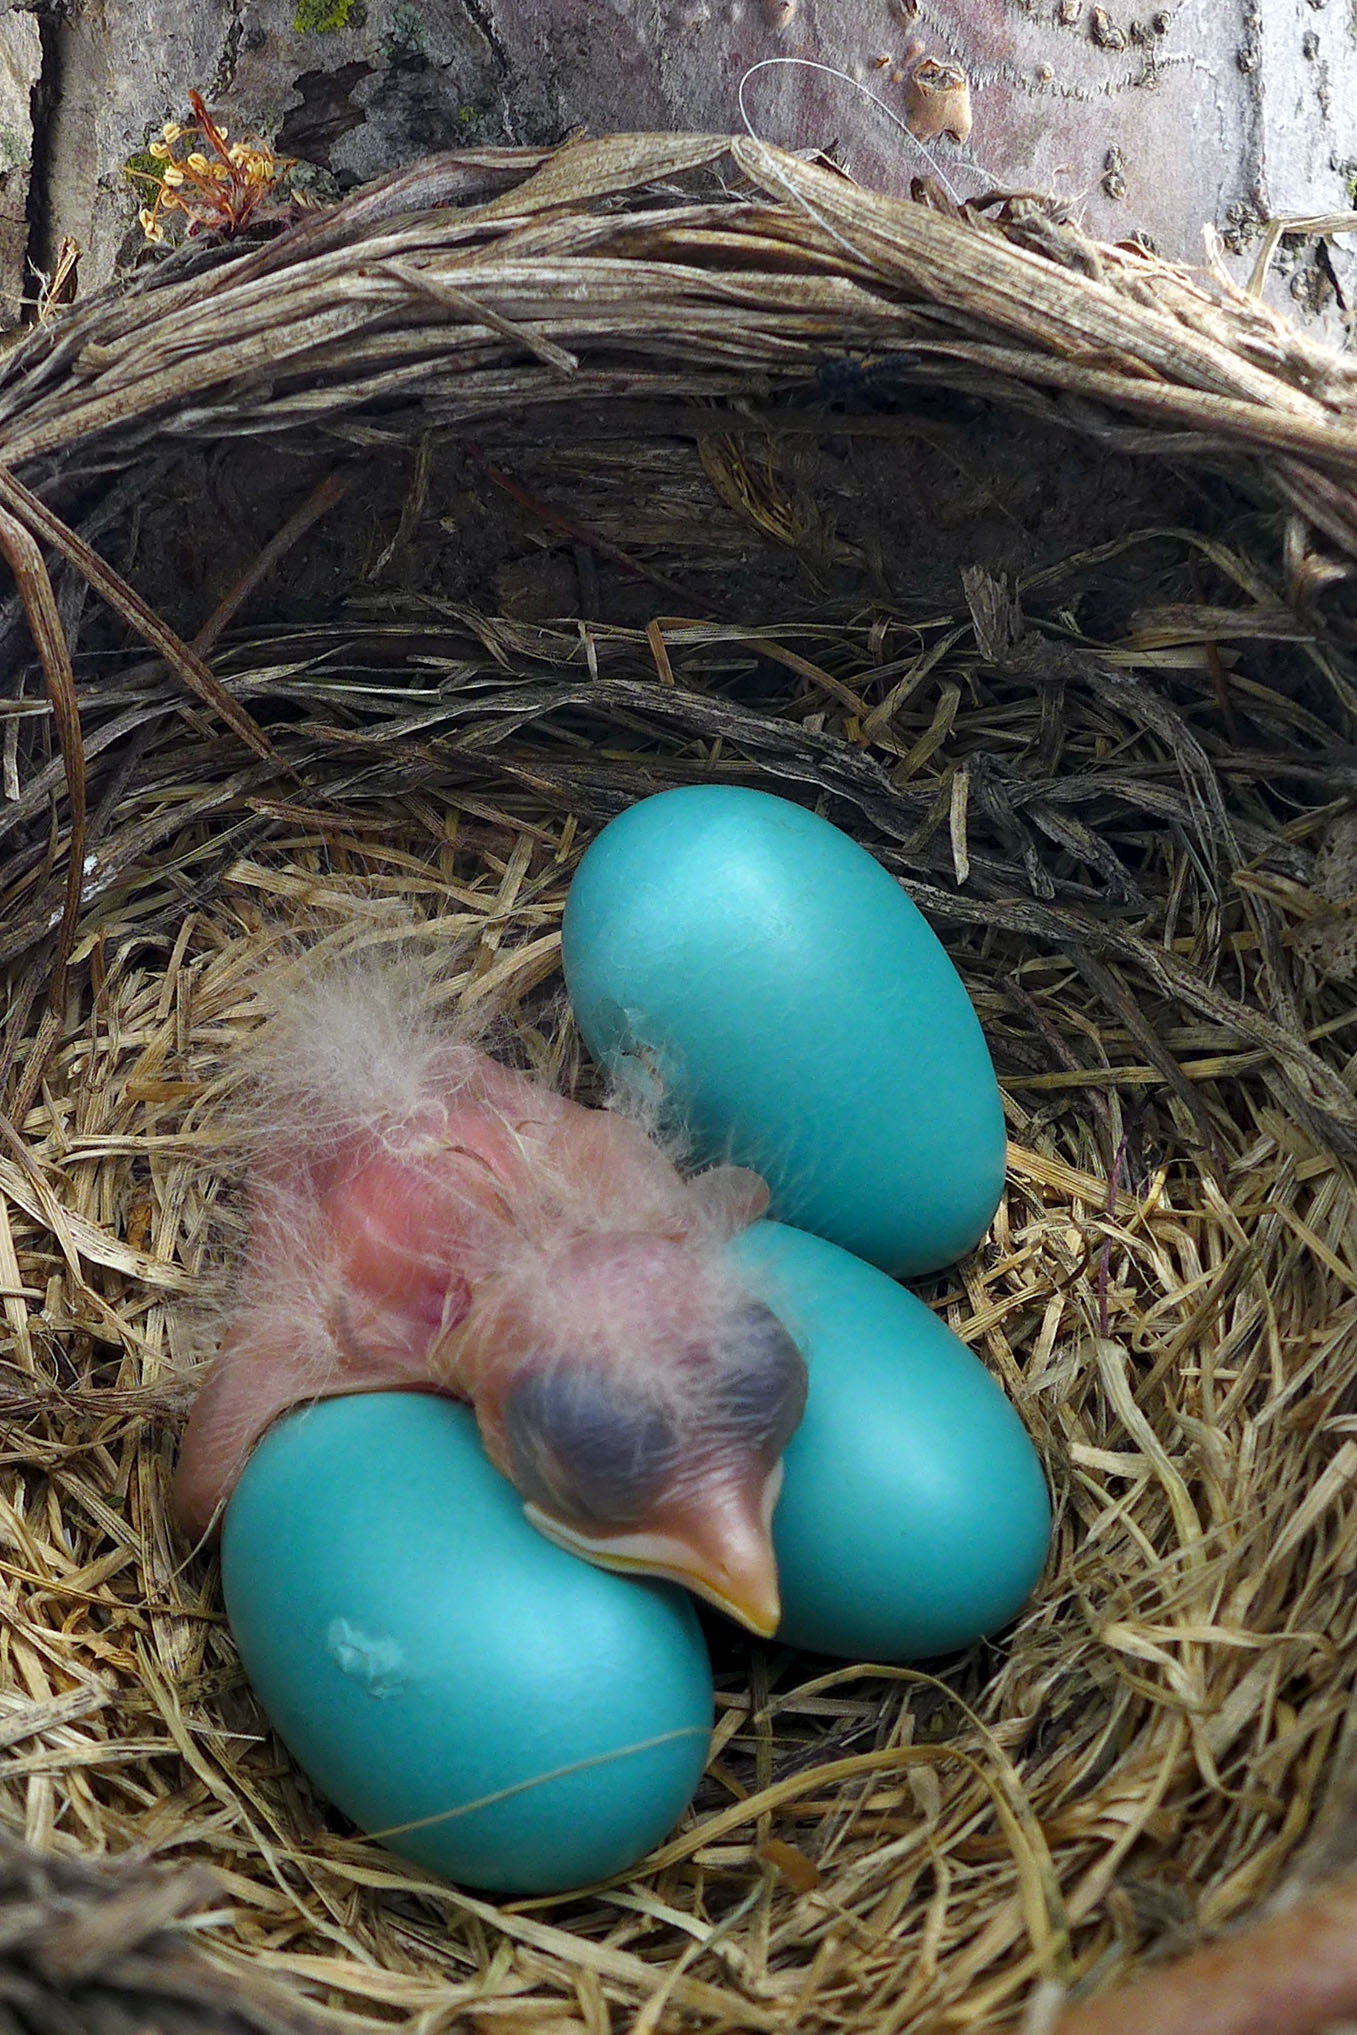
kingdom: Animalia
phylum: Chordata
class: Aves
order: Passeriformes
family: Turdidae
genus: Turdus
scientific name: Turdus migratorius
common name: American robin
